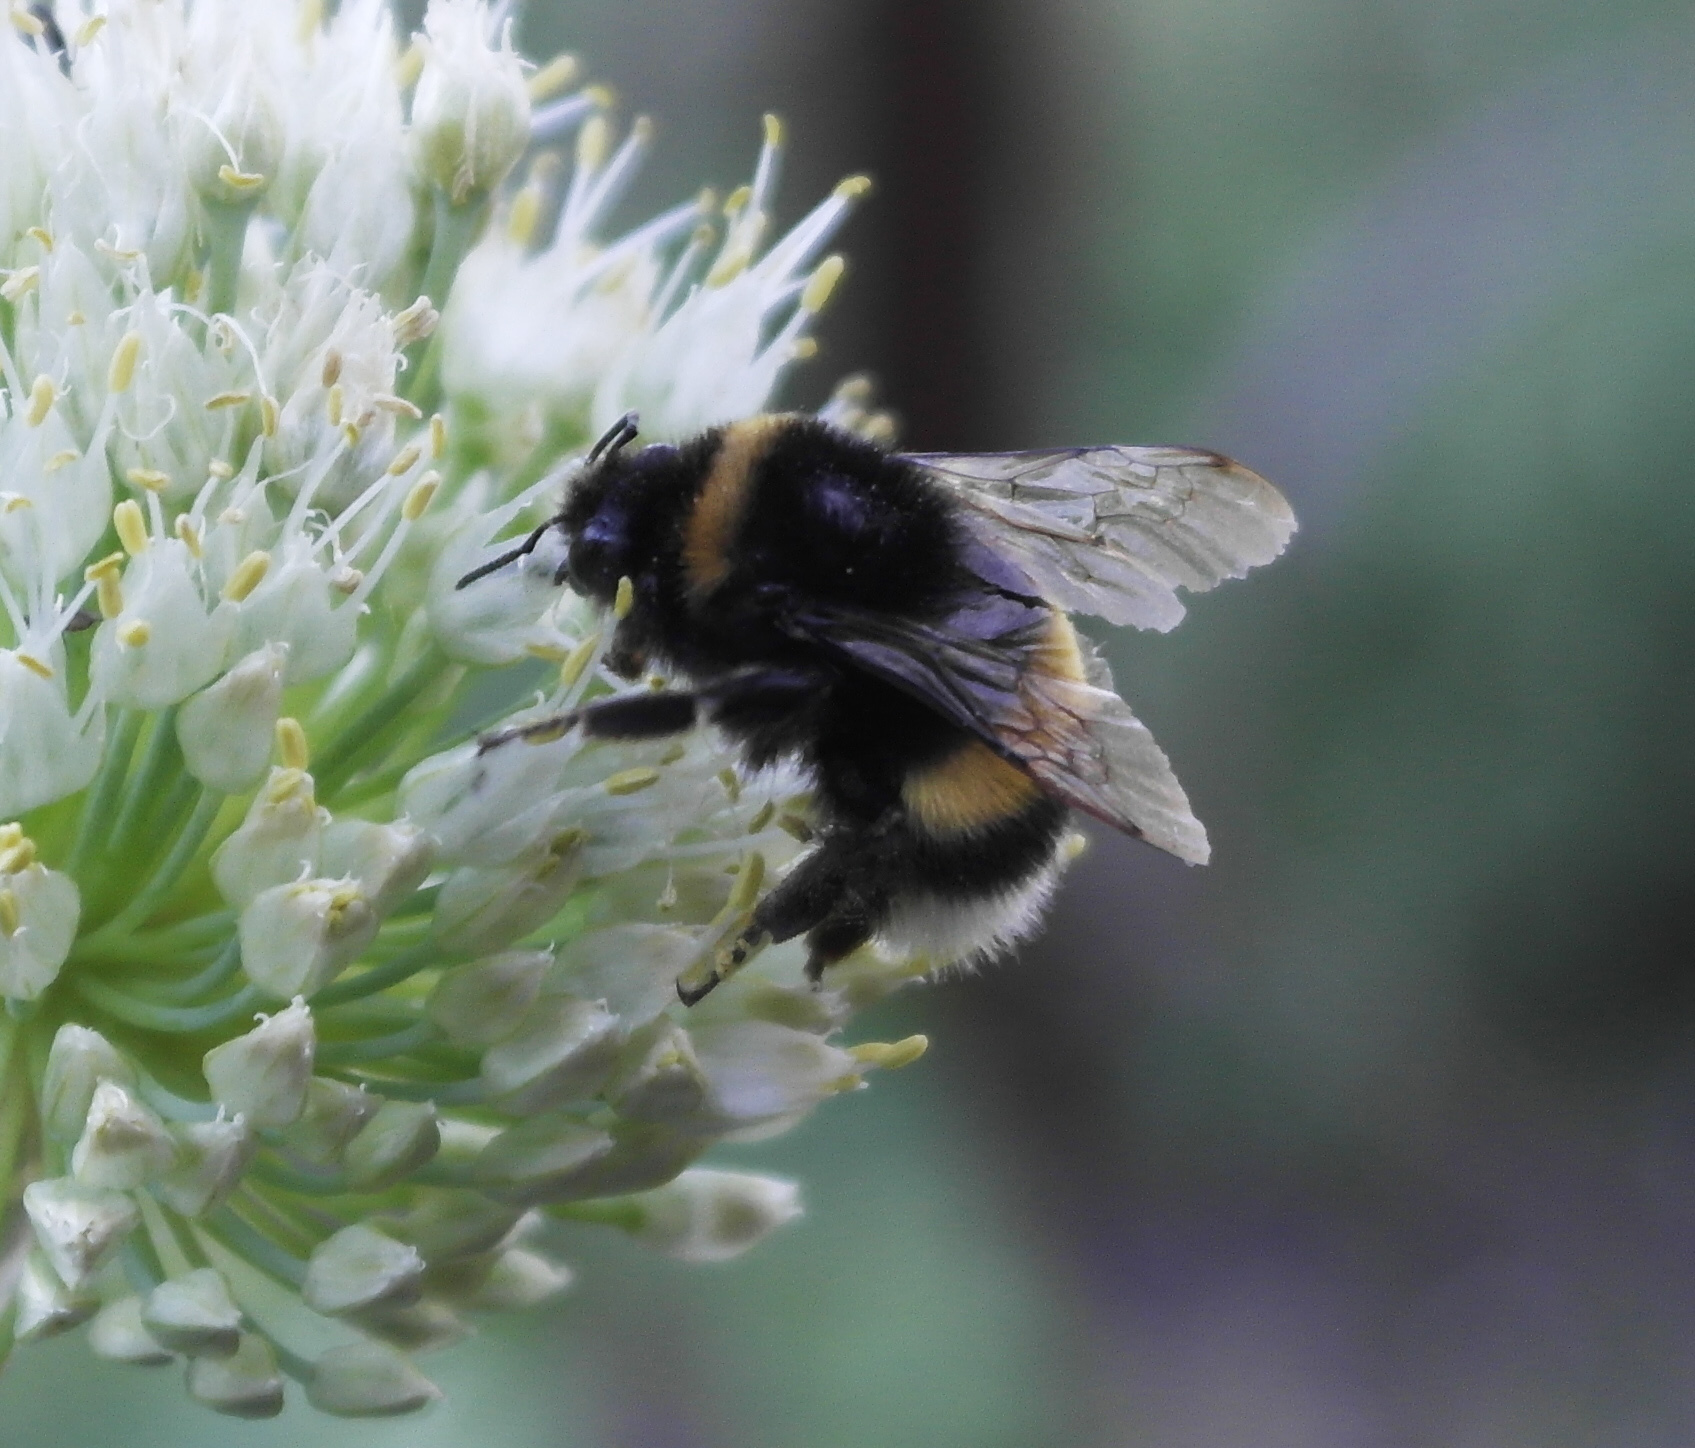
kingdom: Animalia
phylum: Arthropoda
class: Insecta
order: Hymenoptera
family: Apidae
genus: Bombus
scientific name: Bombus
